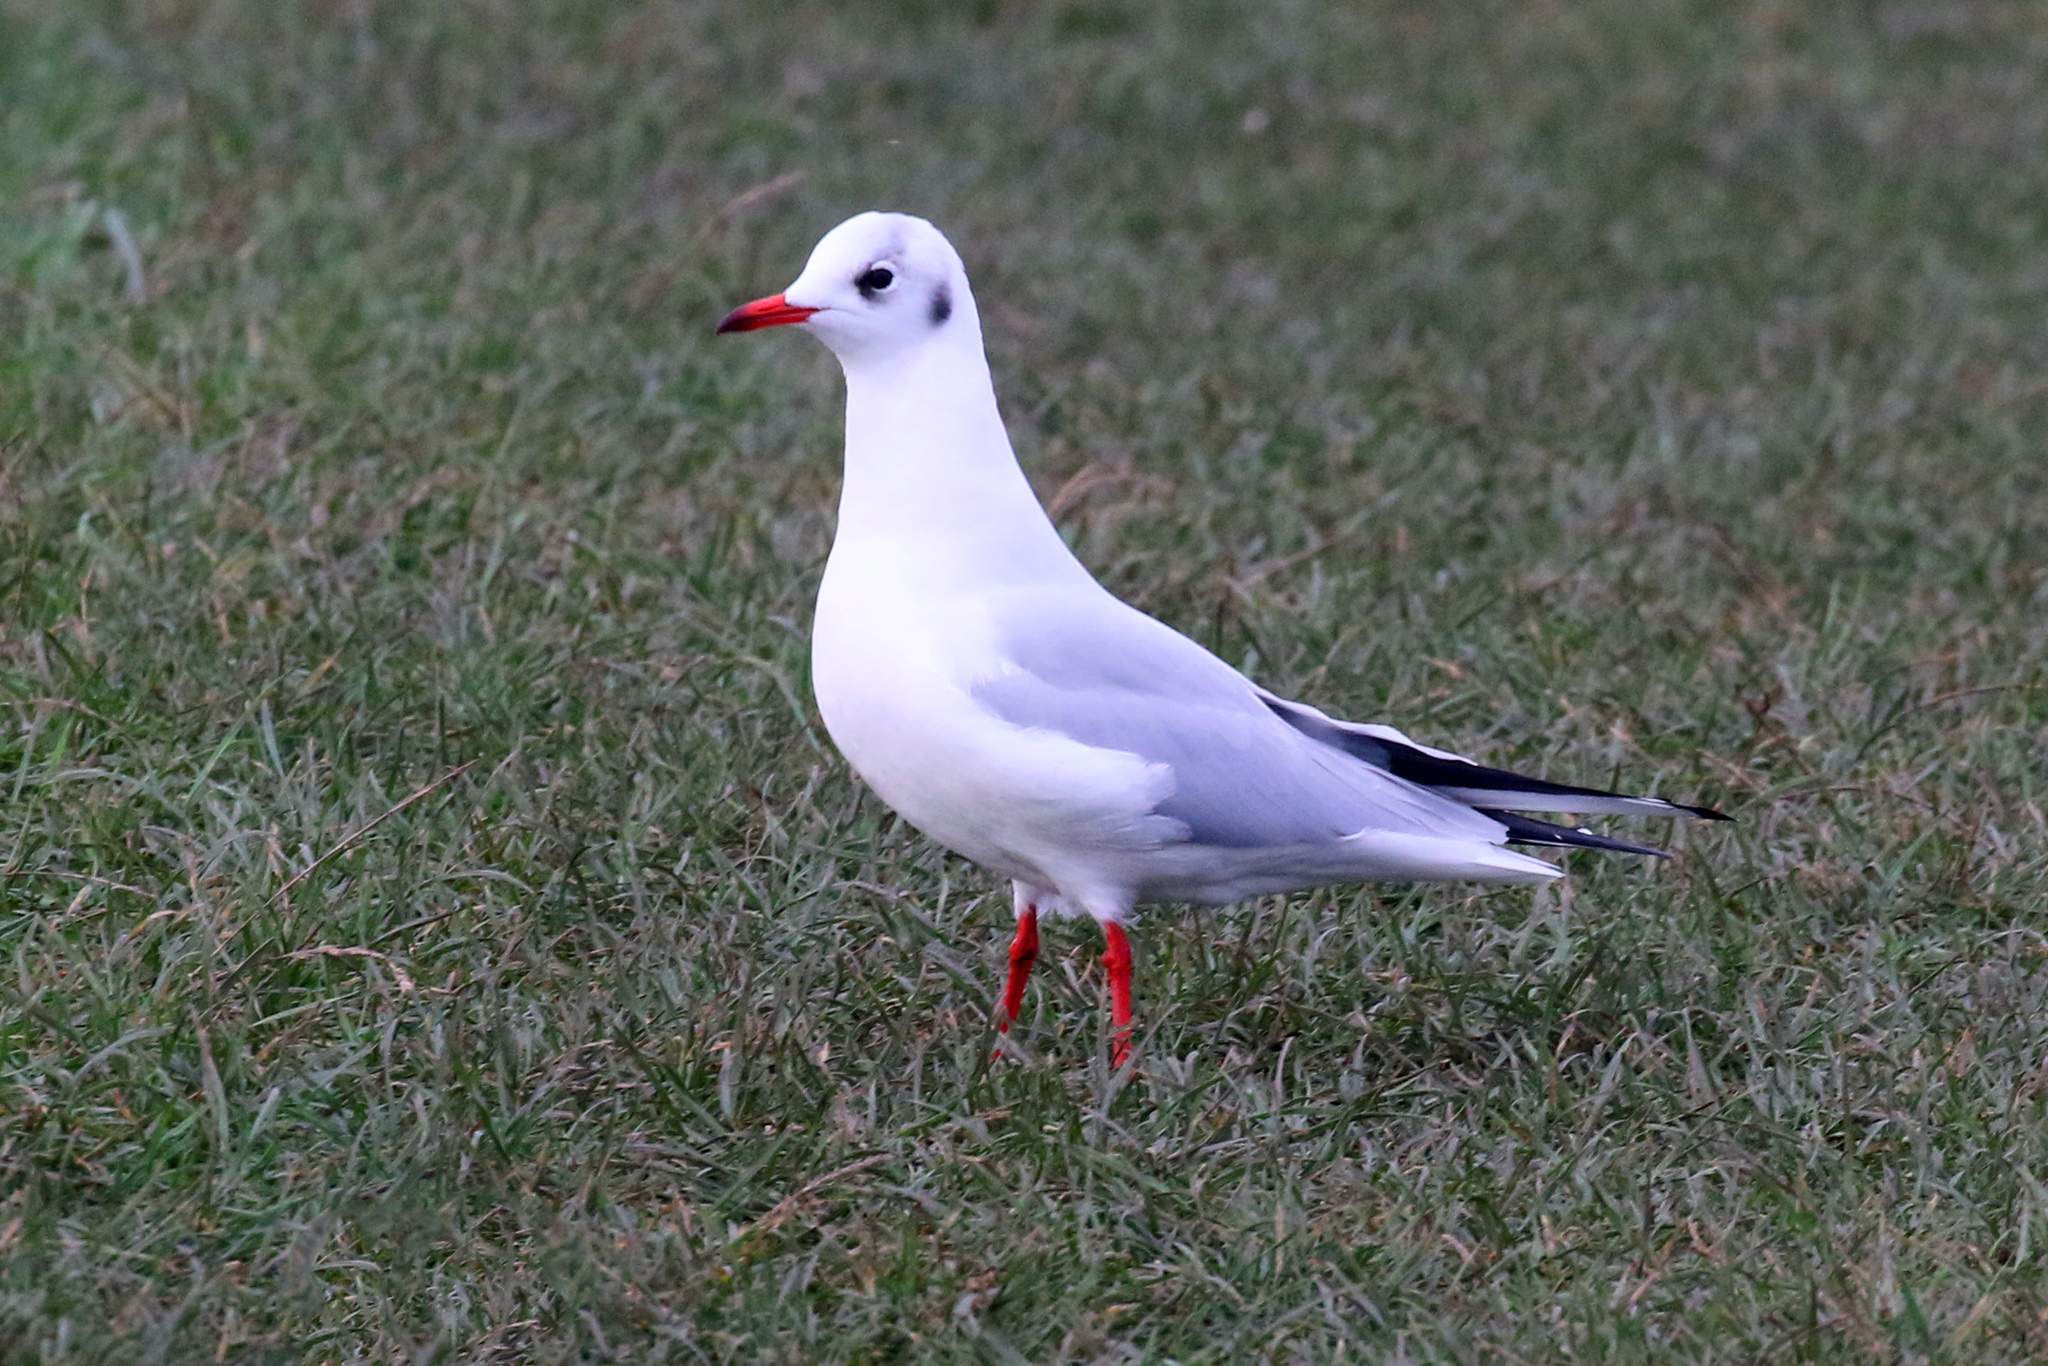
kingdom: Animalia
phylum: Chordata
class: Aves
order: Charadriiformes
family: Laridae
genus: Chroicocephalus
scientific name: Chroicocephalus ridibundus
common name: Black-headed gull
